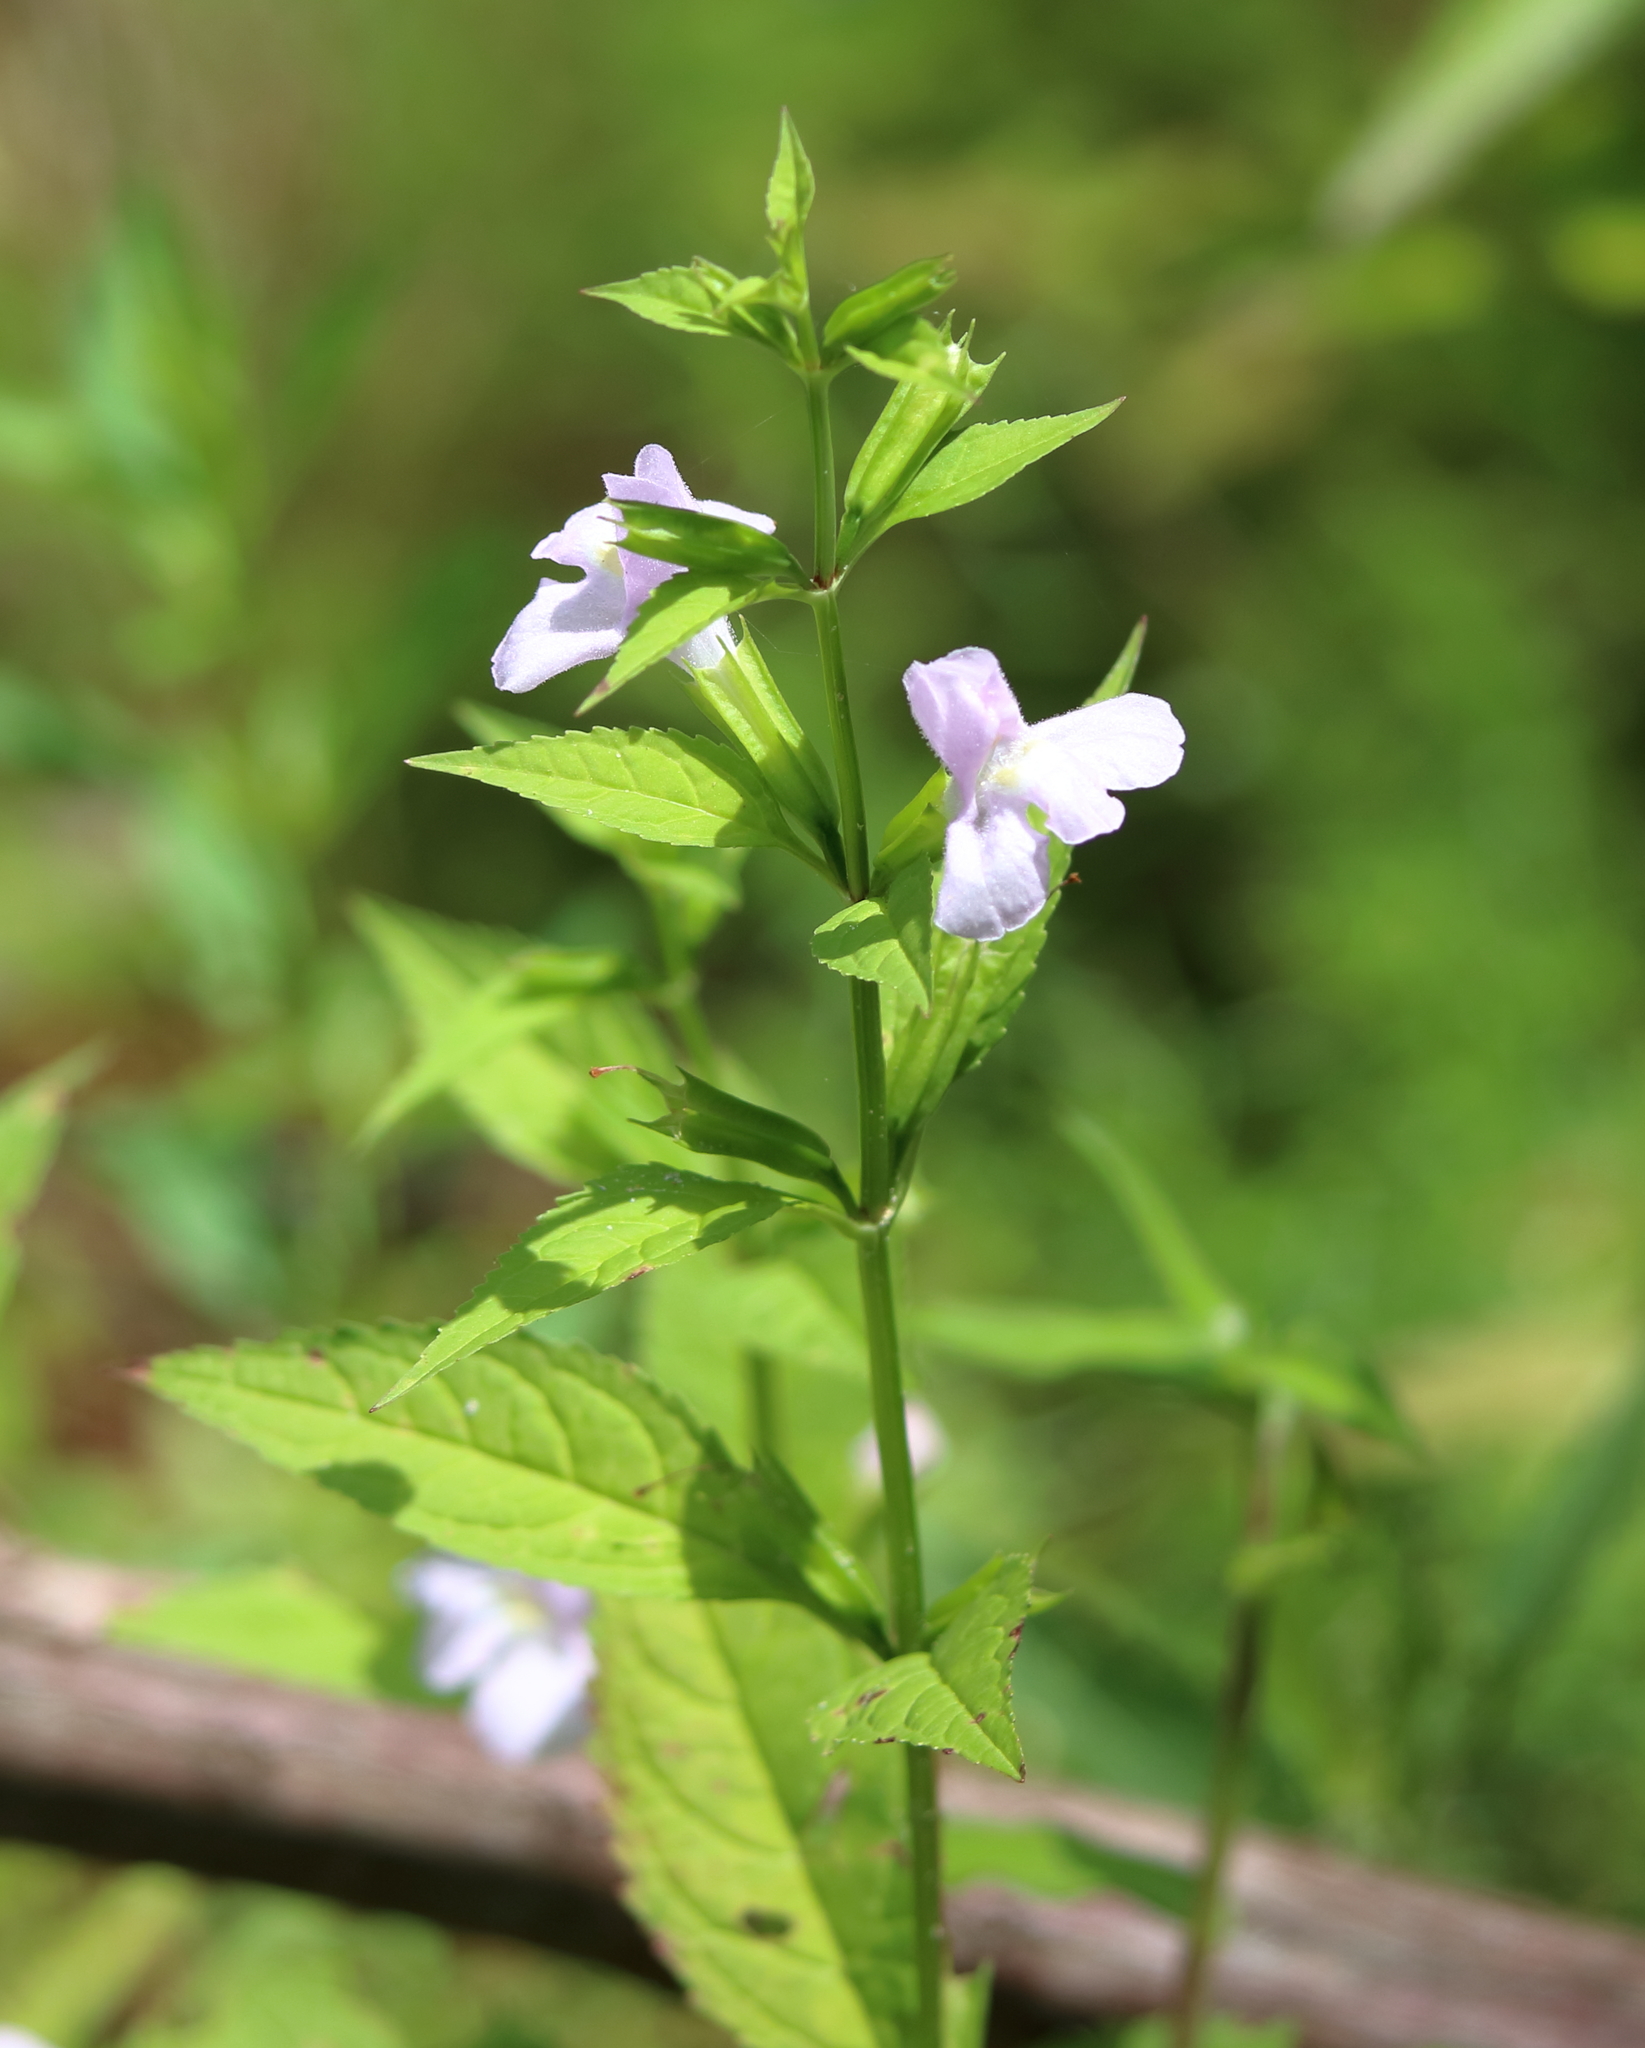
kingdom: Plantae
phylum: Tracheophyta
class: Magnoliopsida
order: Lamiales
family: Phrymaceae
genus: Mimulus
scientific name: Mimulus alatus
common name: Sharp-wing monkey-flower
